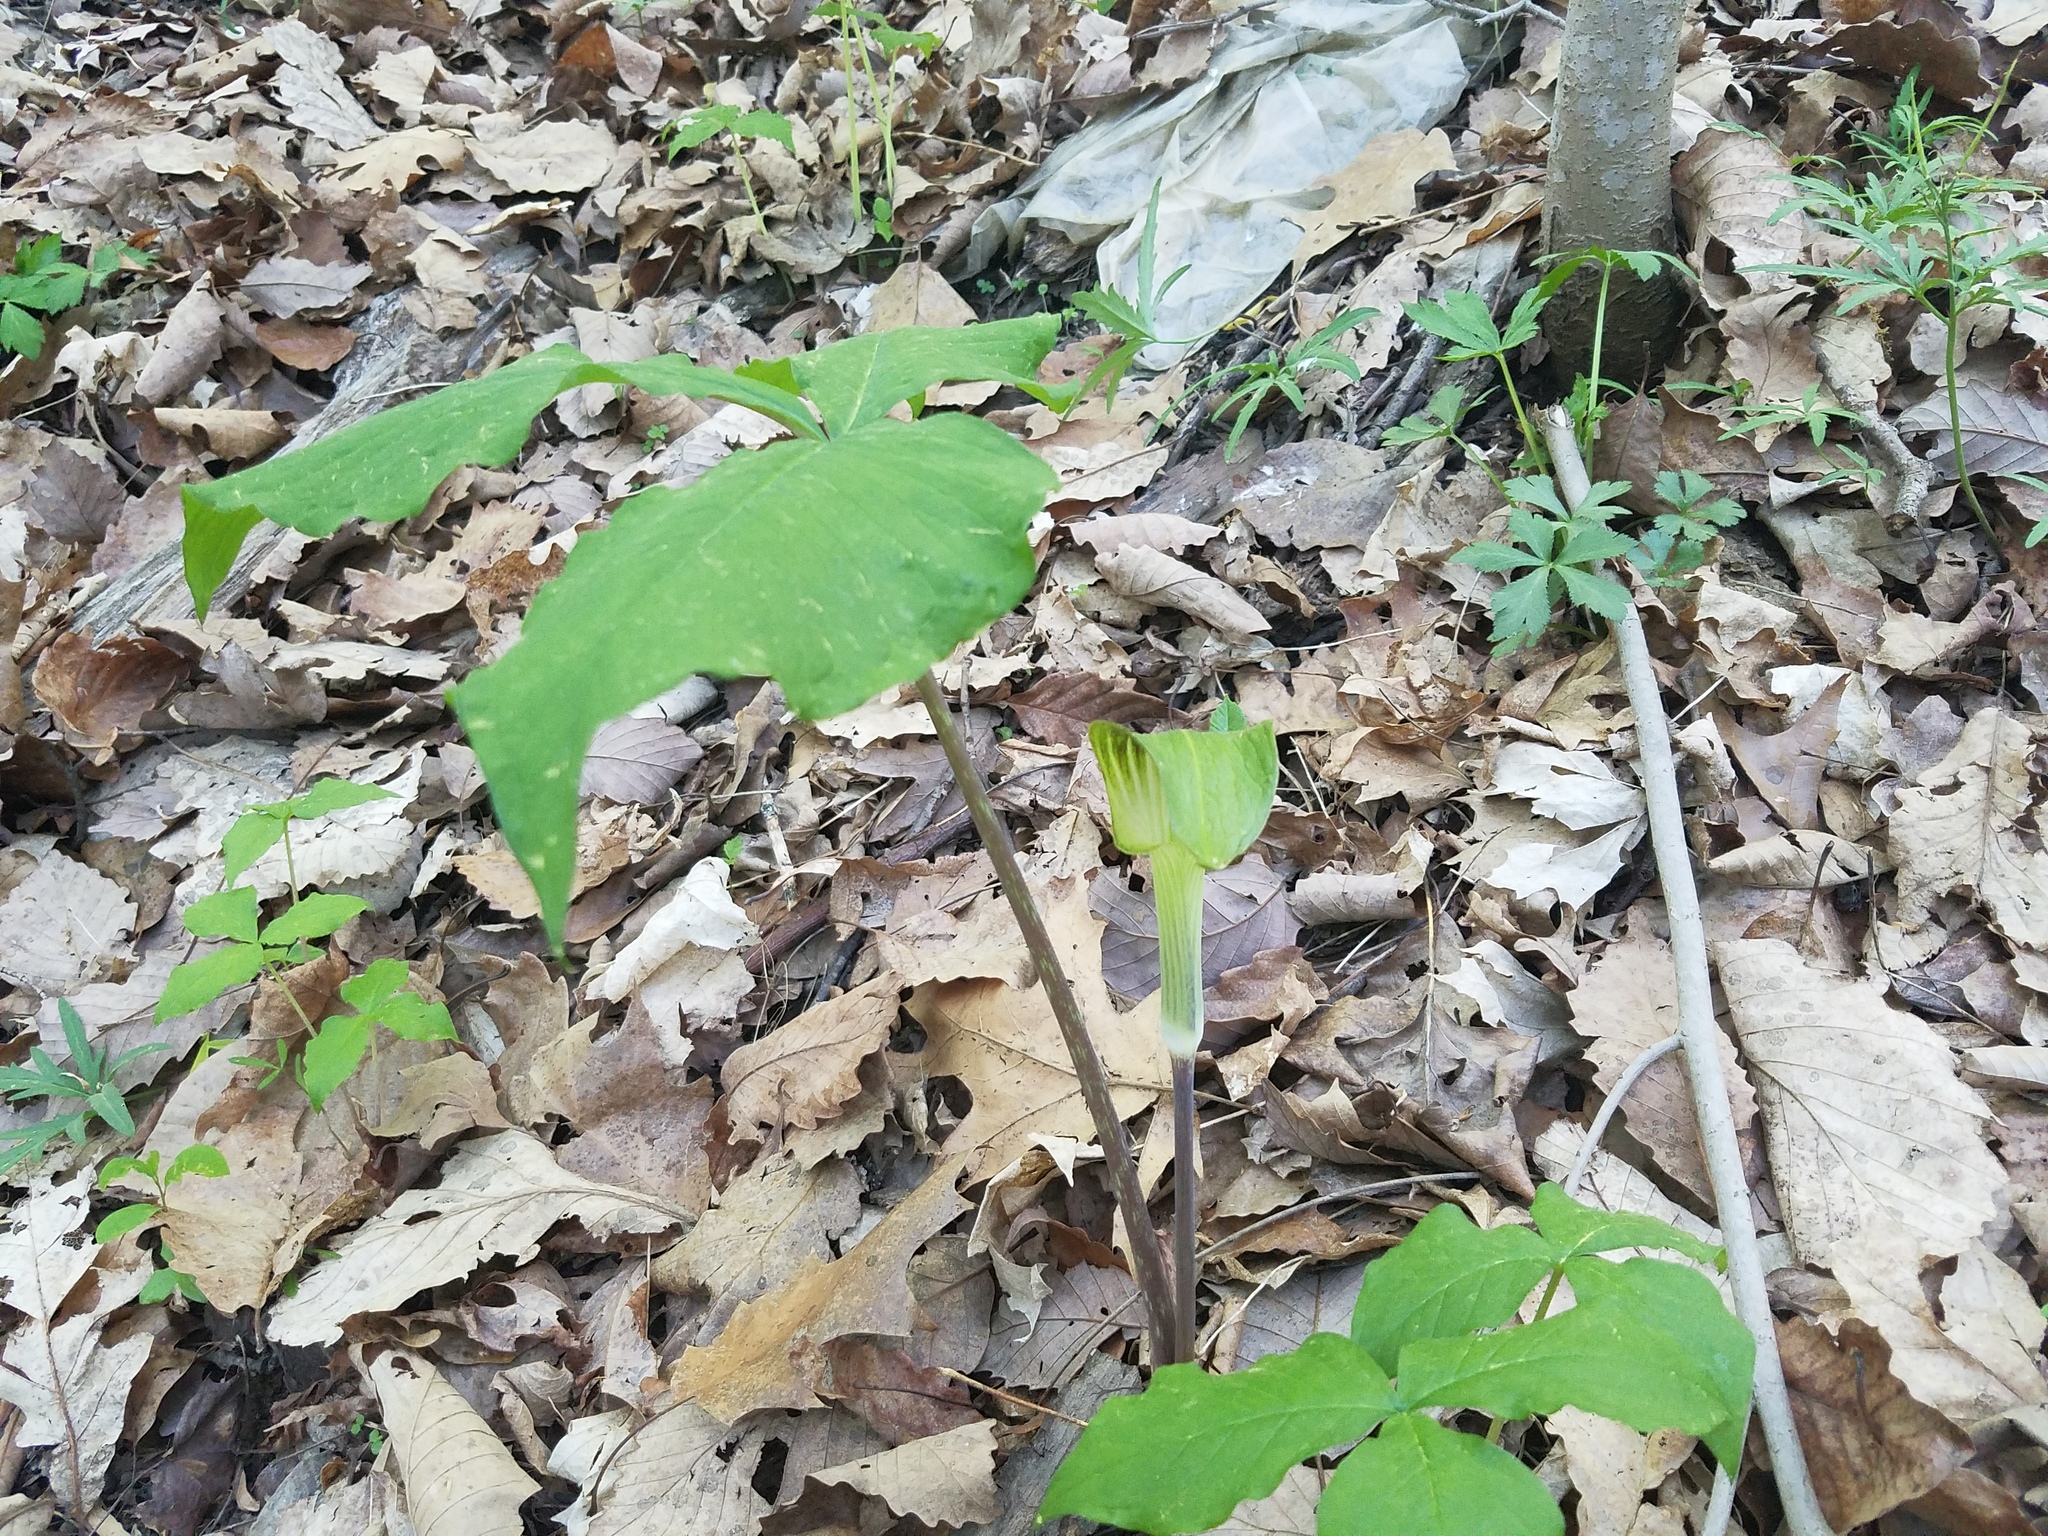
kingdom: Plantae
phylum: Tracheophyta
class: Liliopsida
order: Alismatales
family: Araceae
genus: Arisaema
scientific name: Arisaema triphyllum
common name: Jack-in-the-pulpit
